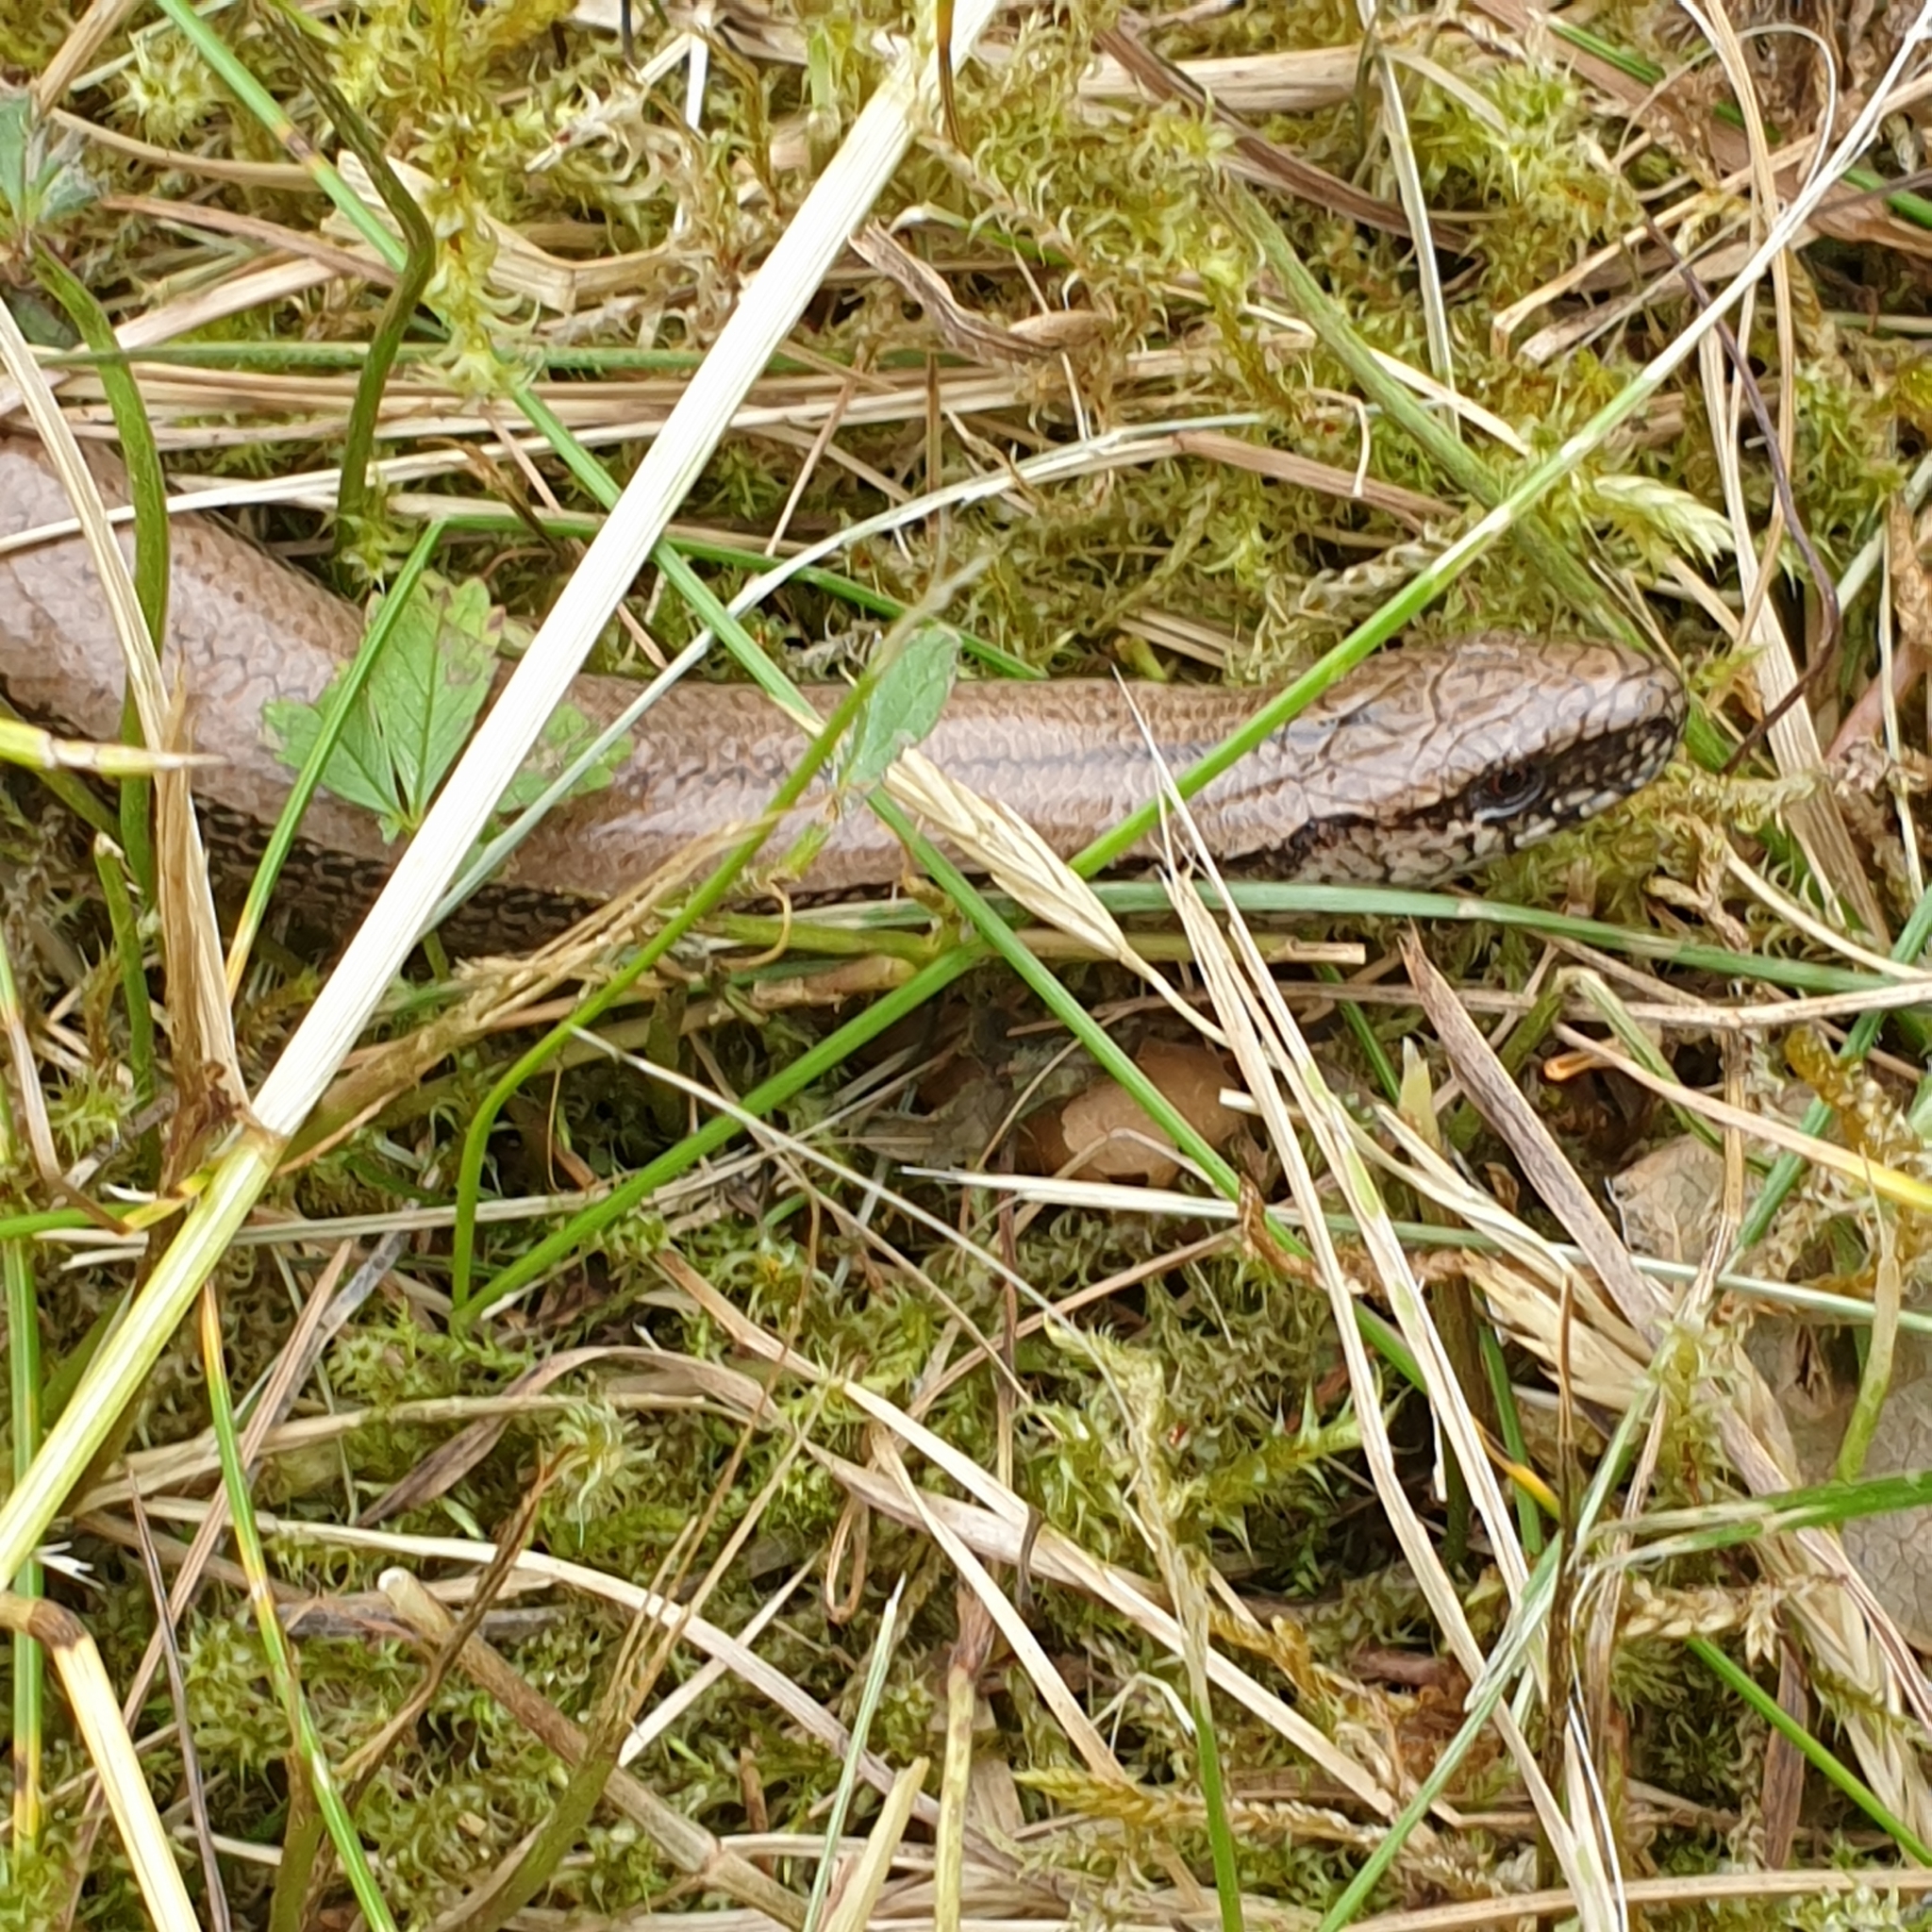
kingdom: Animalia
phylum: Chordata
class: Squamata
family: Anguidae
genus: Anguis
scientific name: Anguis fragilis
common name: Slow worm
